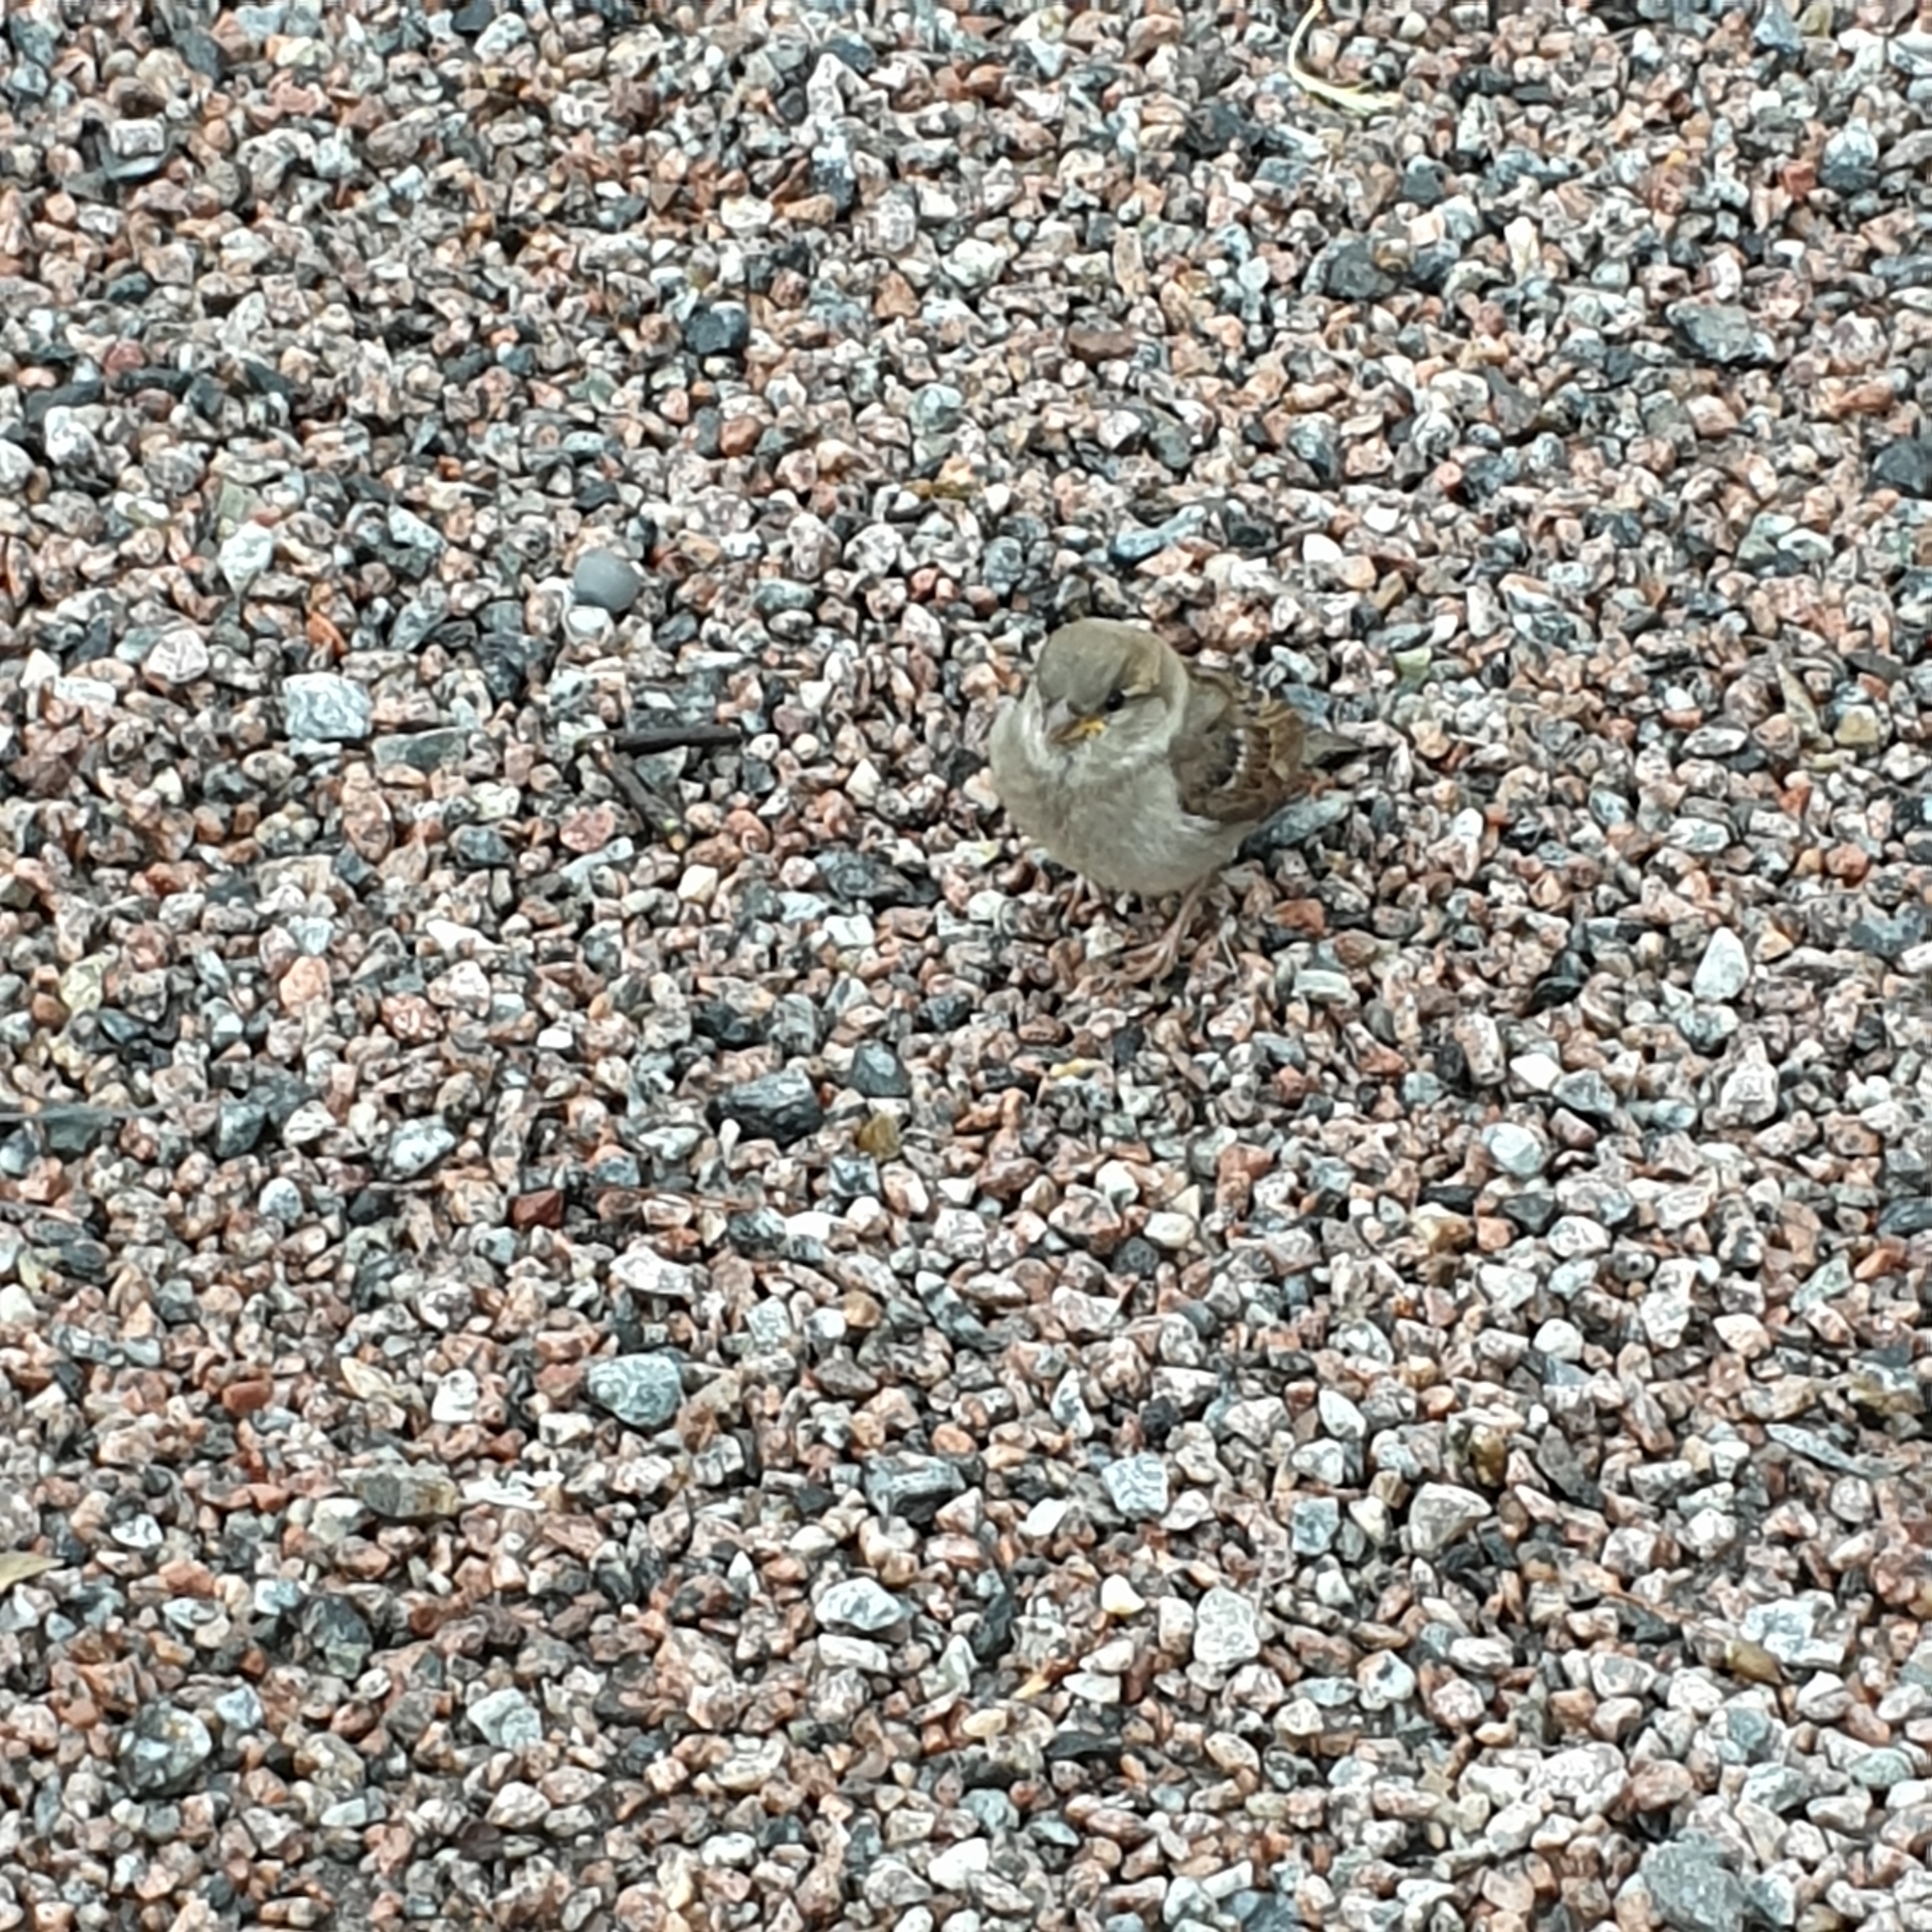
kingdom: Animalia
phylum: Chordata
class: Aves
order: Passeriformes
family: Passeridae
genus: Passer
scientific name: Passer domesticus
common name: House sparrow
